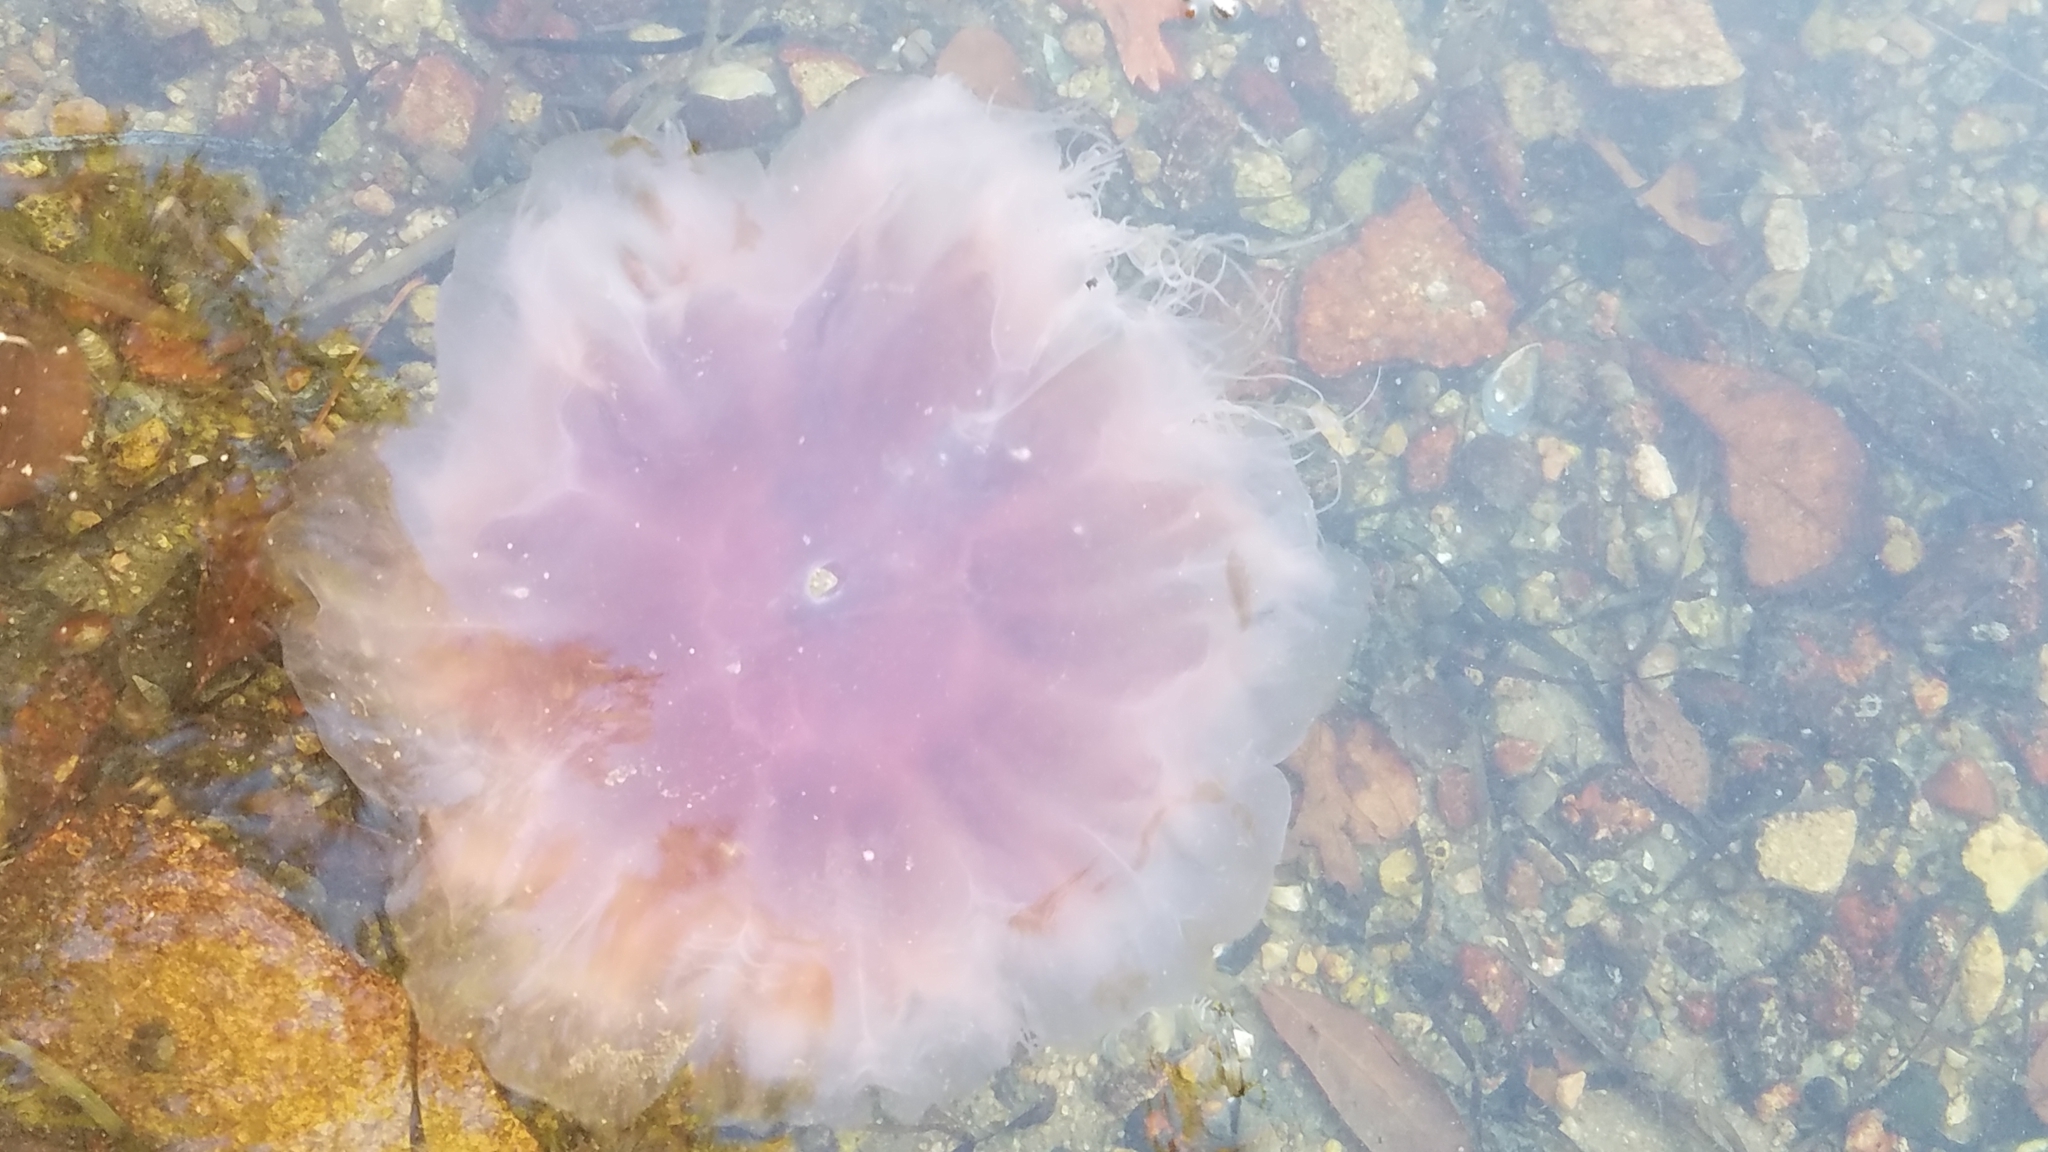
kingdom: Animalia
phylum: Cnidaria
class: Scyphozoa
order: Semaeostomeae
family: Cyaneidae
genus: Cyanea
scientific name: Cyanea versicolor
